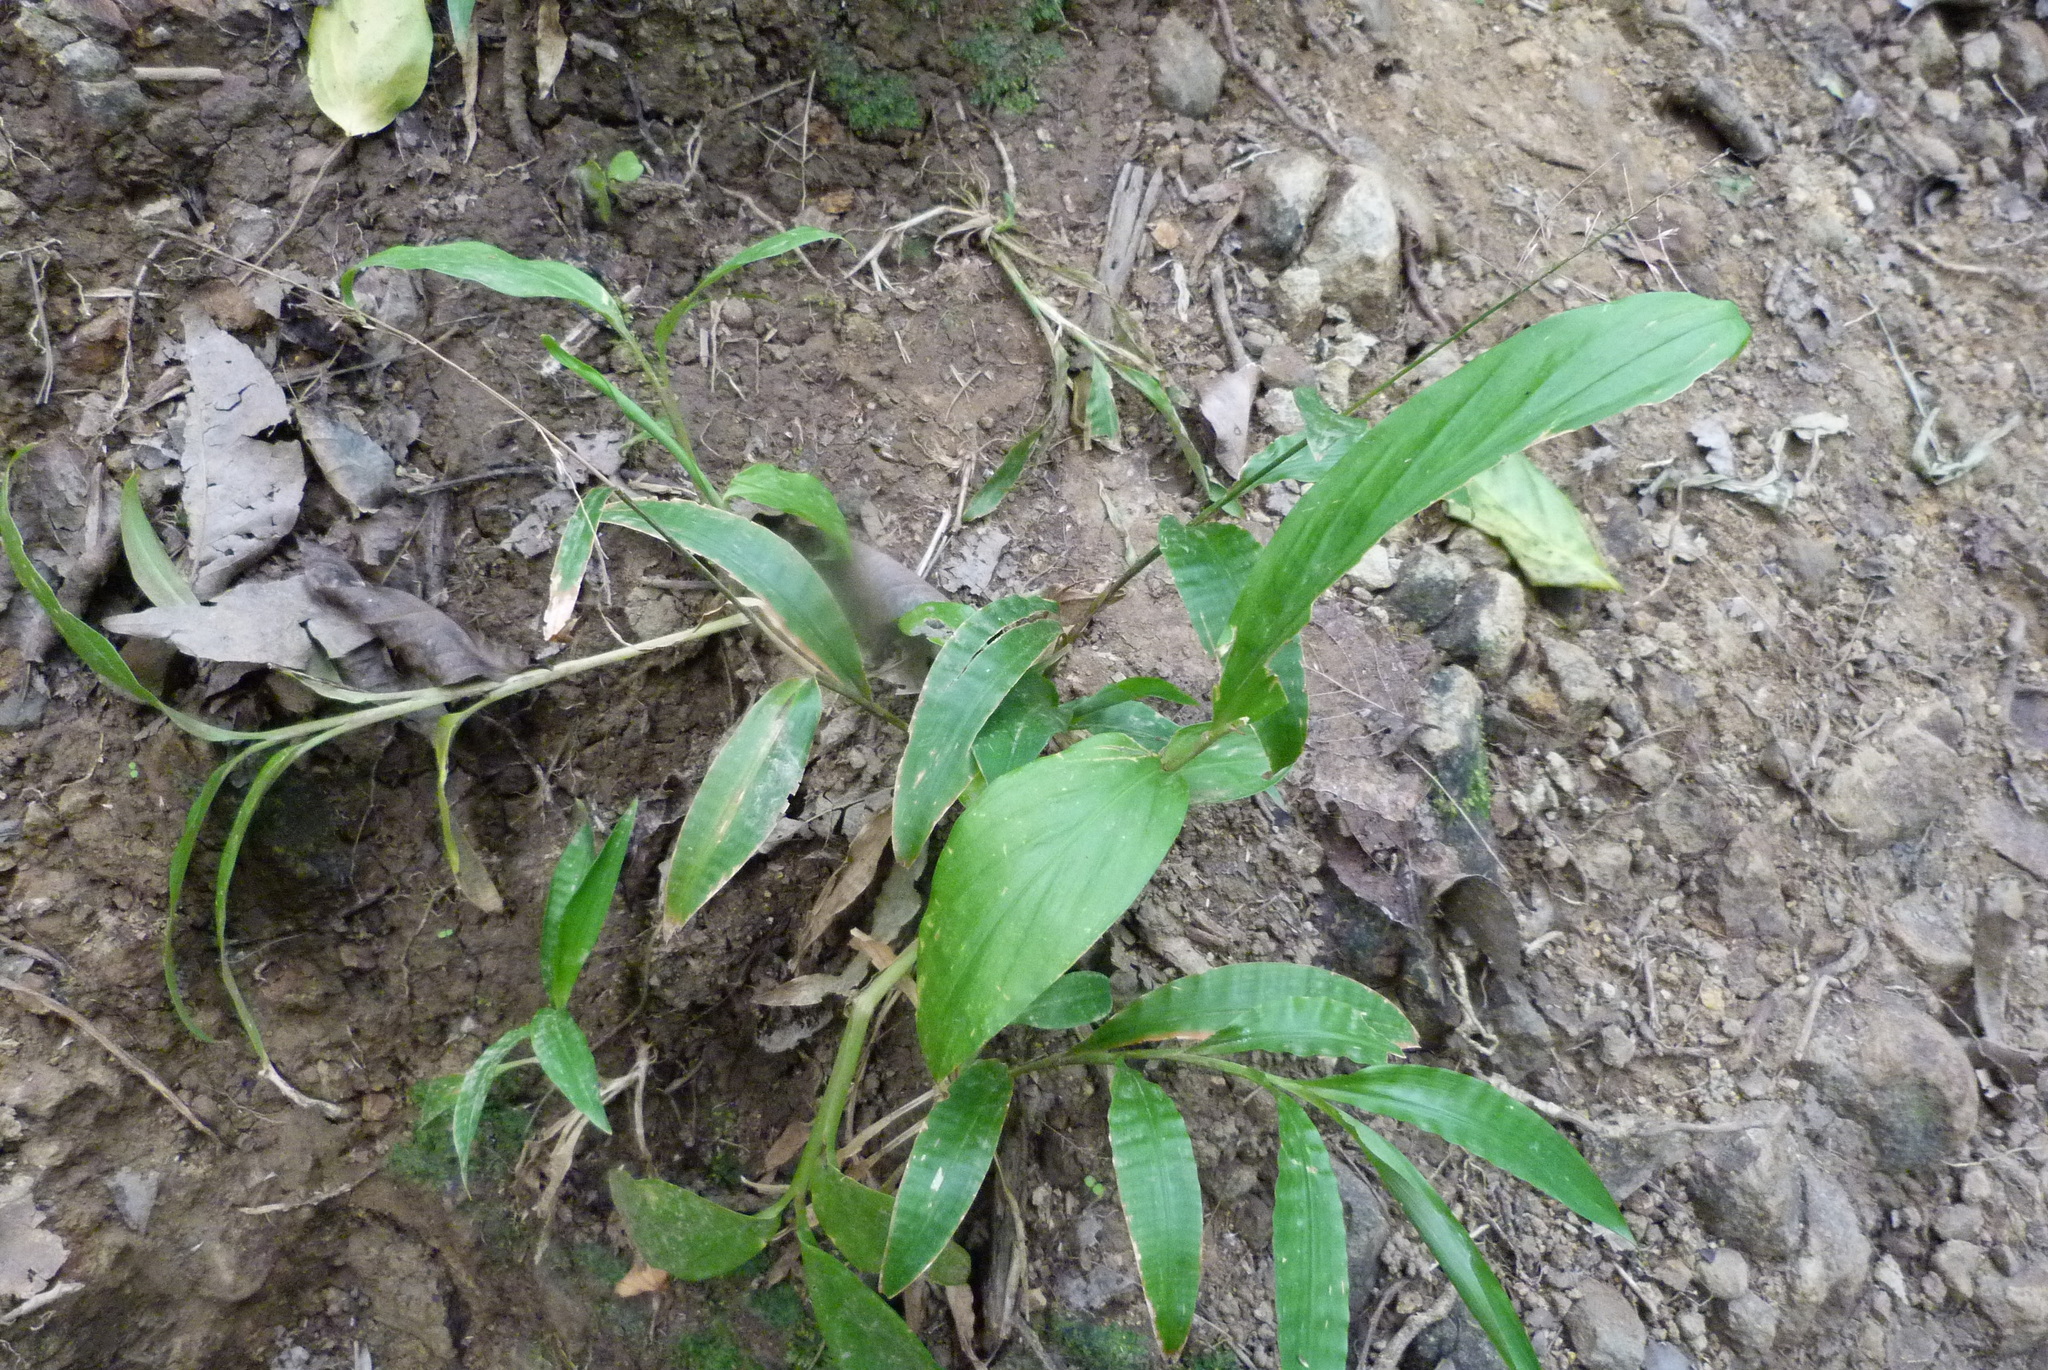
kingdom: Plantae
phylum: Tracheophyta
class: Liliopsida
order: Poales
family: Poaceae
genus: Centotheca
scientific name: Centotheca lappacea
